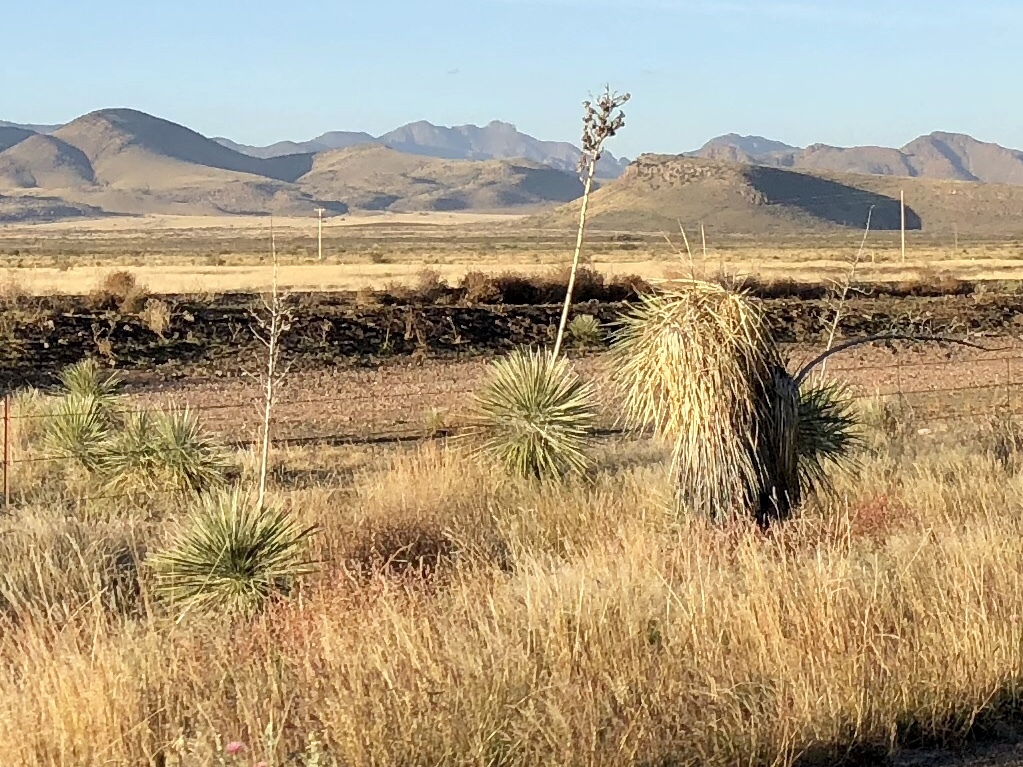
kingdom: Plantae
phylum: Tracheophyta
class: Liliopsida
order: Asparagales
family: Asparagaceae
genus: Yucca
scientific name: Yucca elata
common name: Palmella
